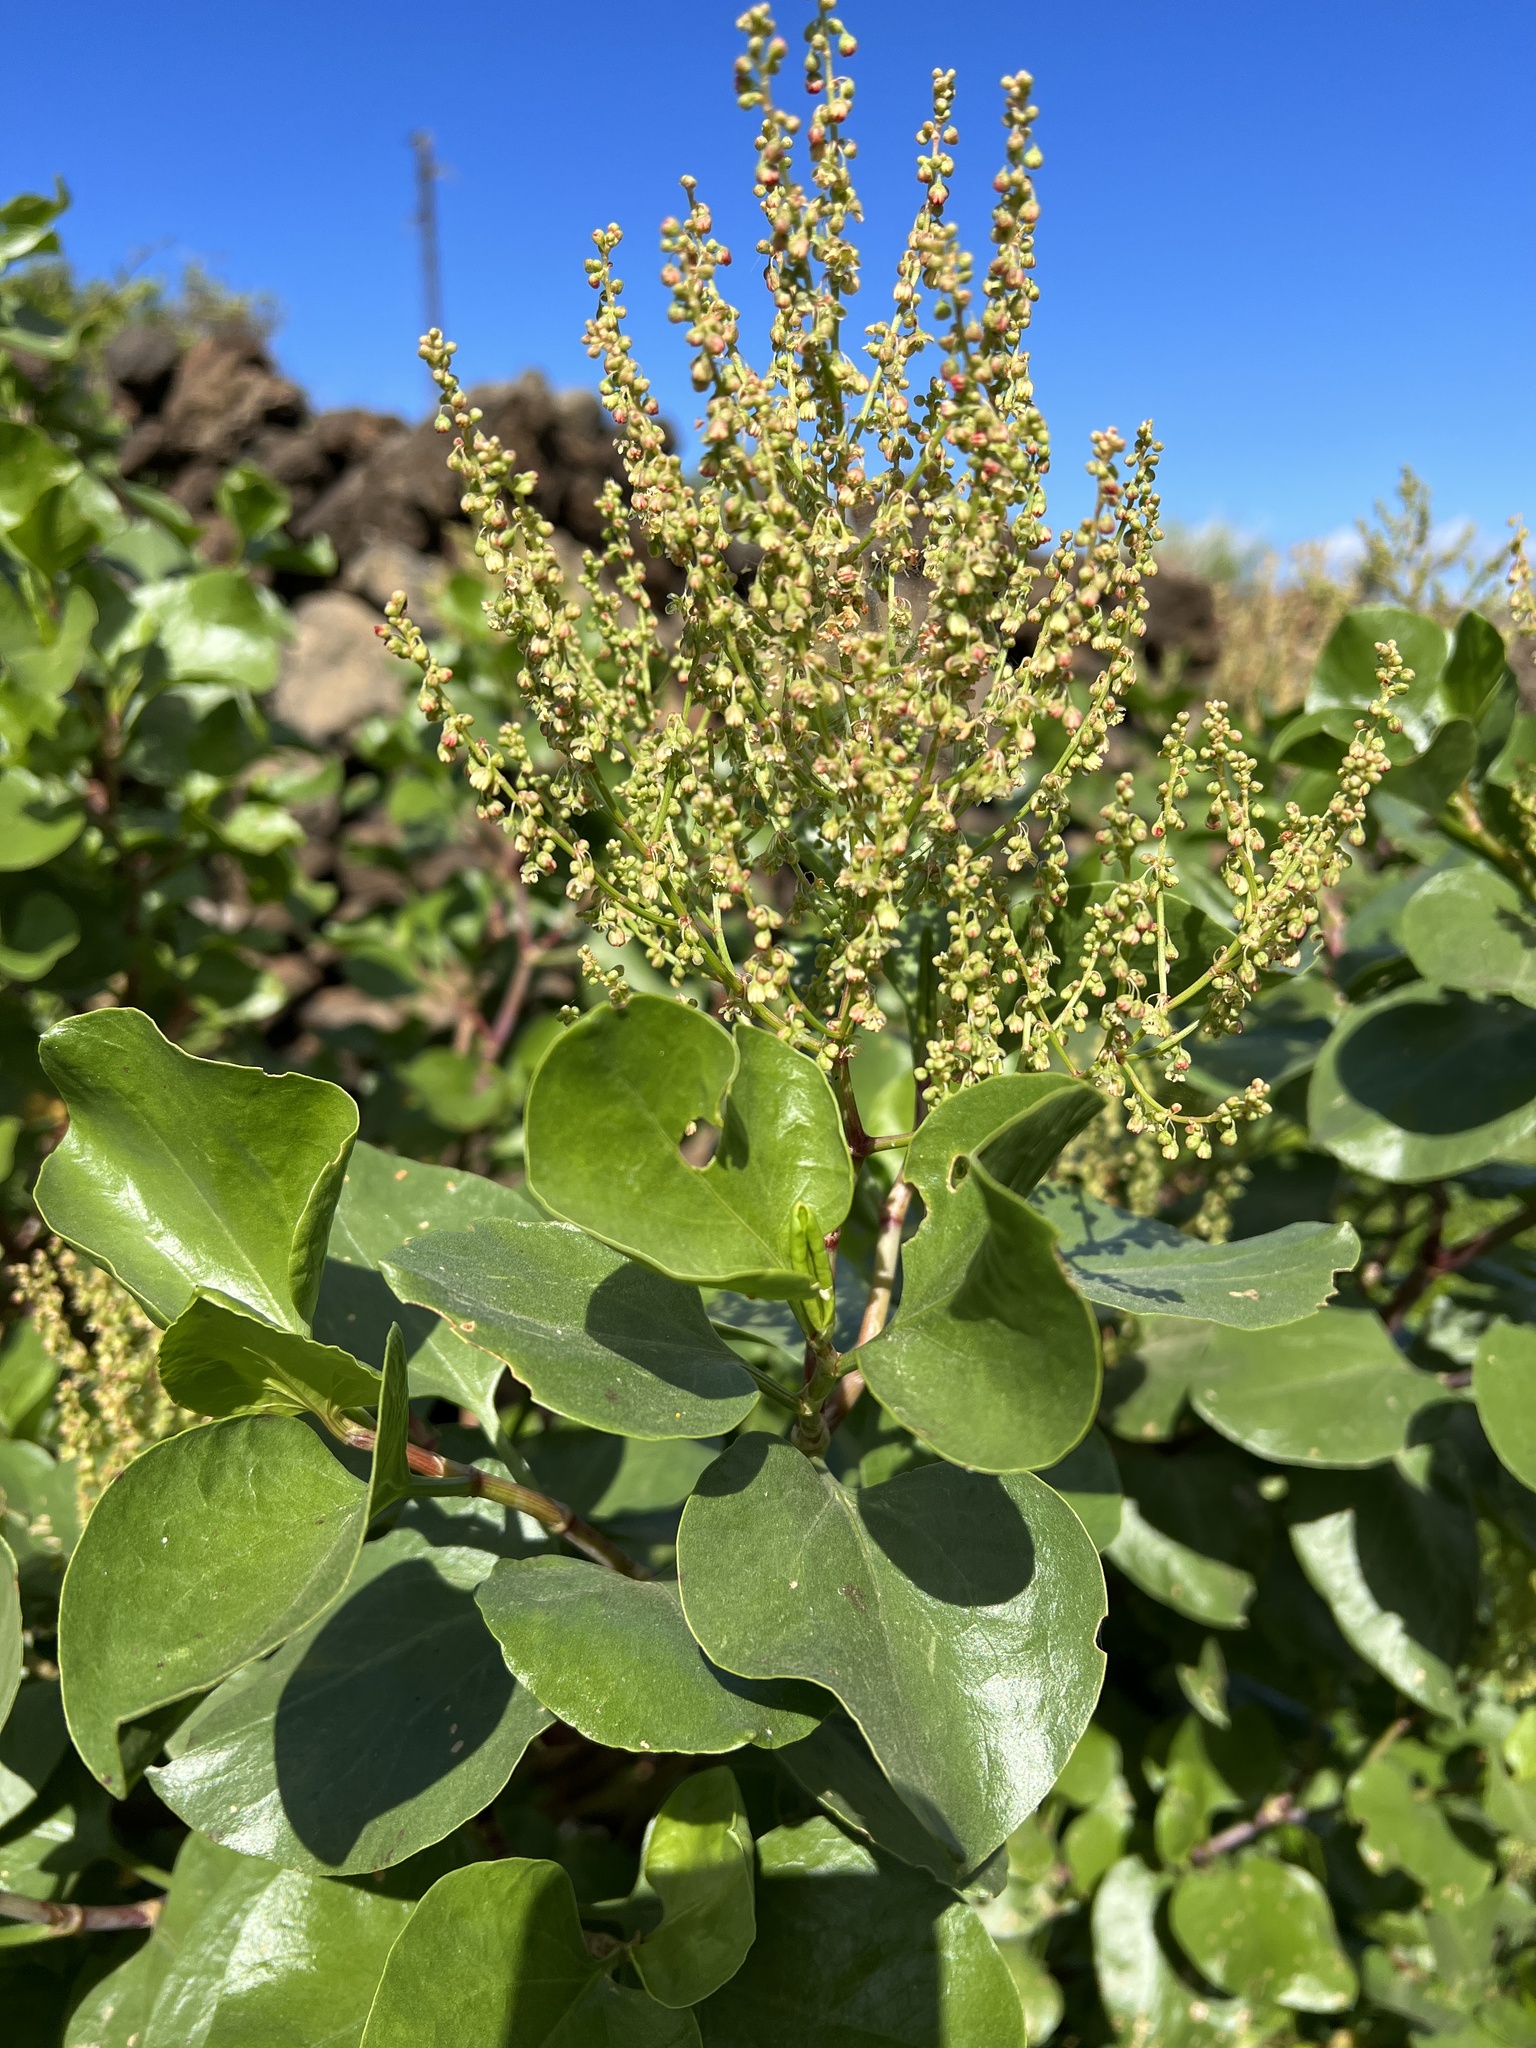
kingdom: Plantae
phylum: Tracheophyta
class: Magnoliopsida
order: Caryophyllales
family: Polygonaceae
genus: Rumex
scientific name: Rumex lunaria
